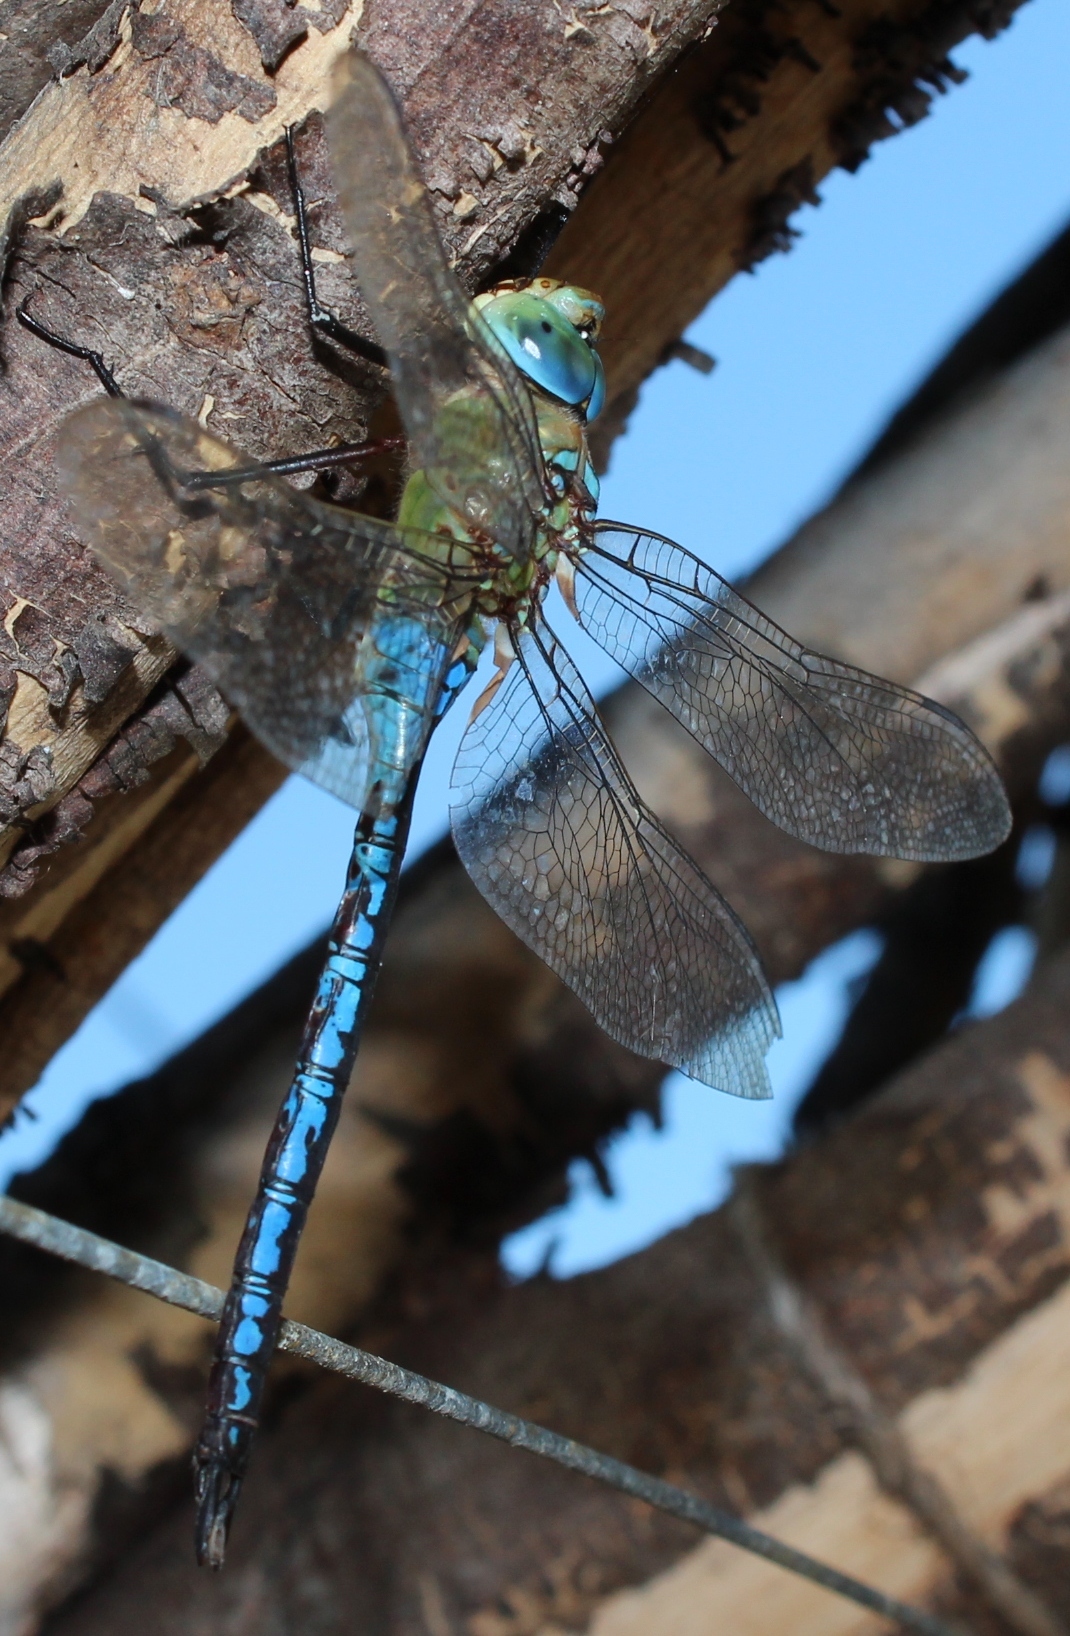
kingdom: Animalia
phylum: Arthropoda
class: Insecta
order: Odonata
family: Aeshnidae
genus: Anax
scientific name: Anax imperator
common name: Emperor dragonfly
